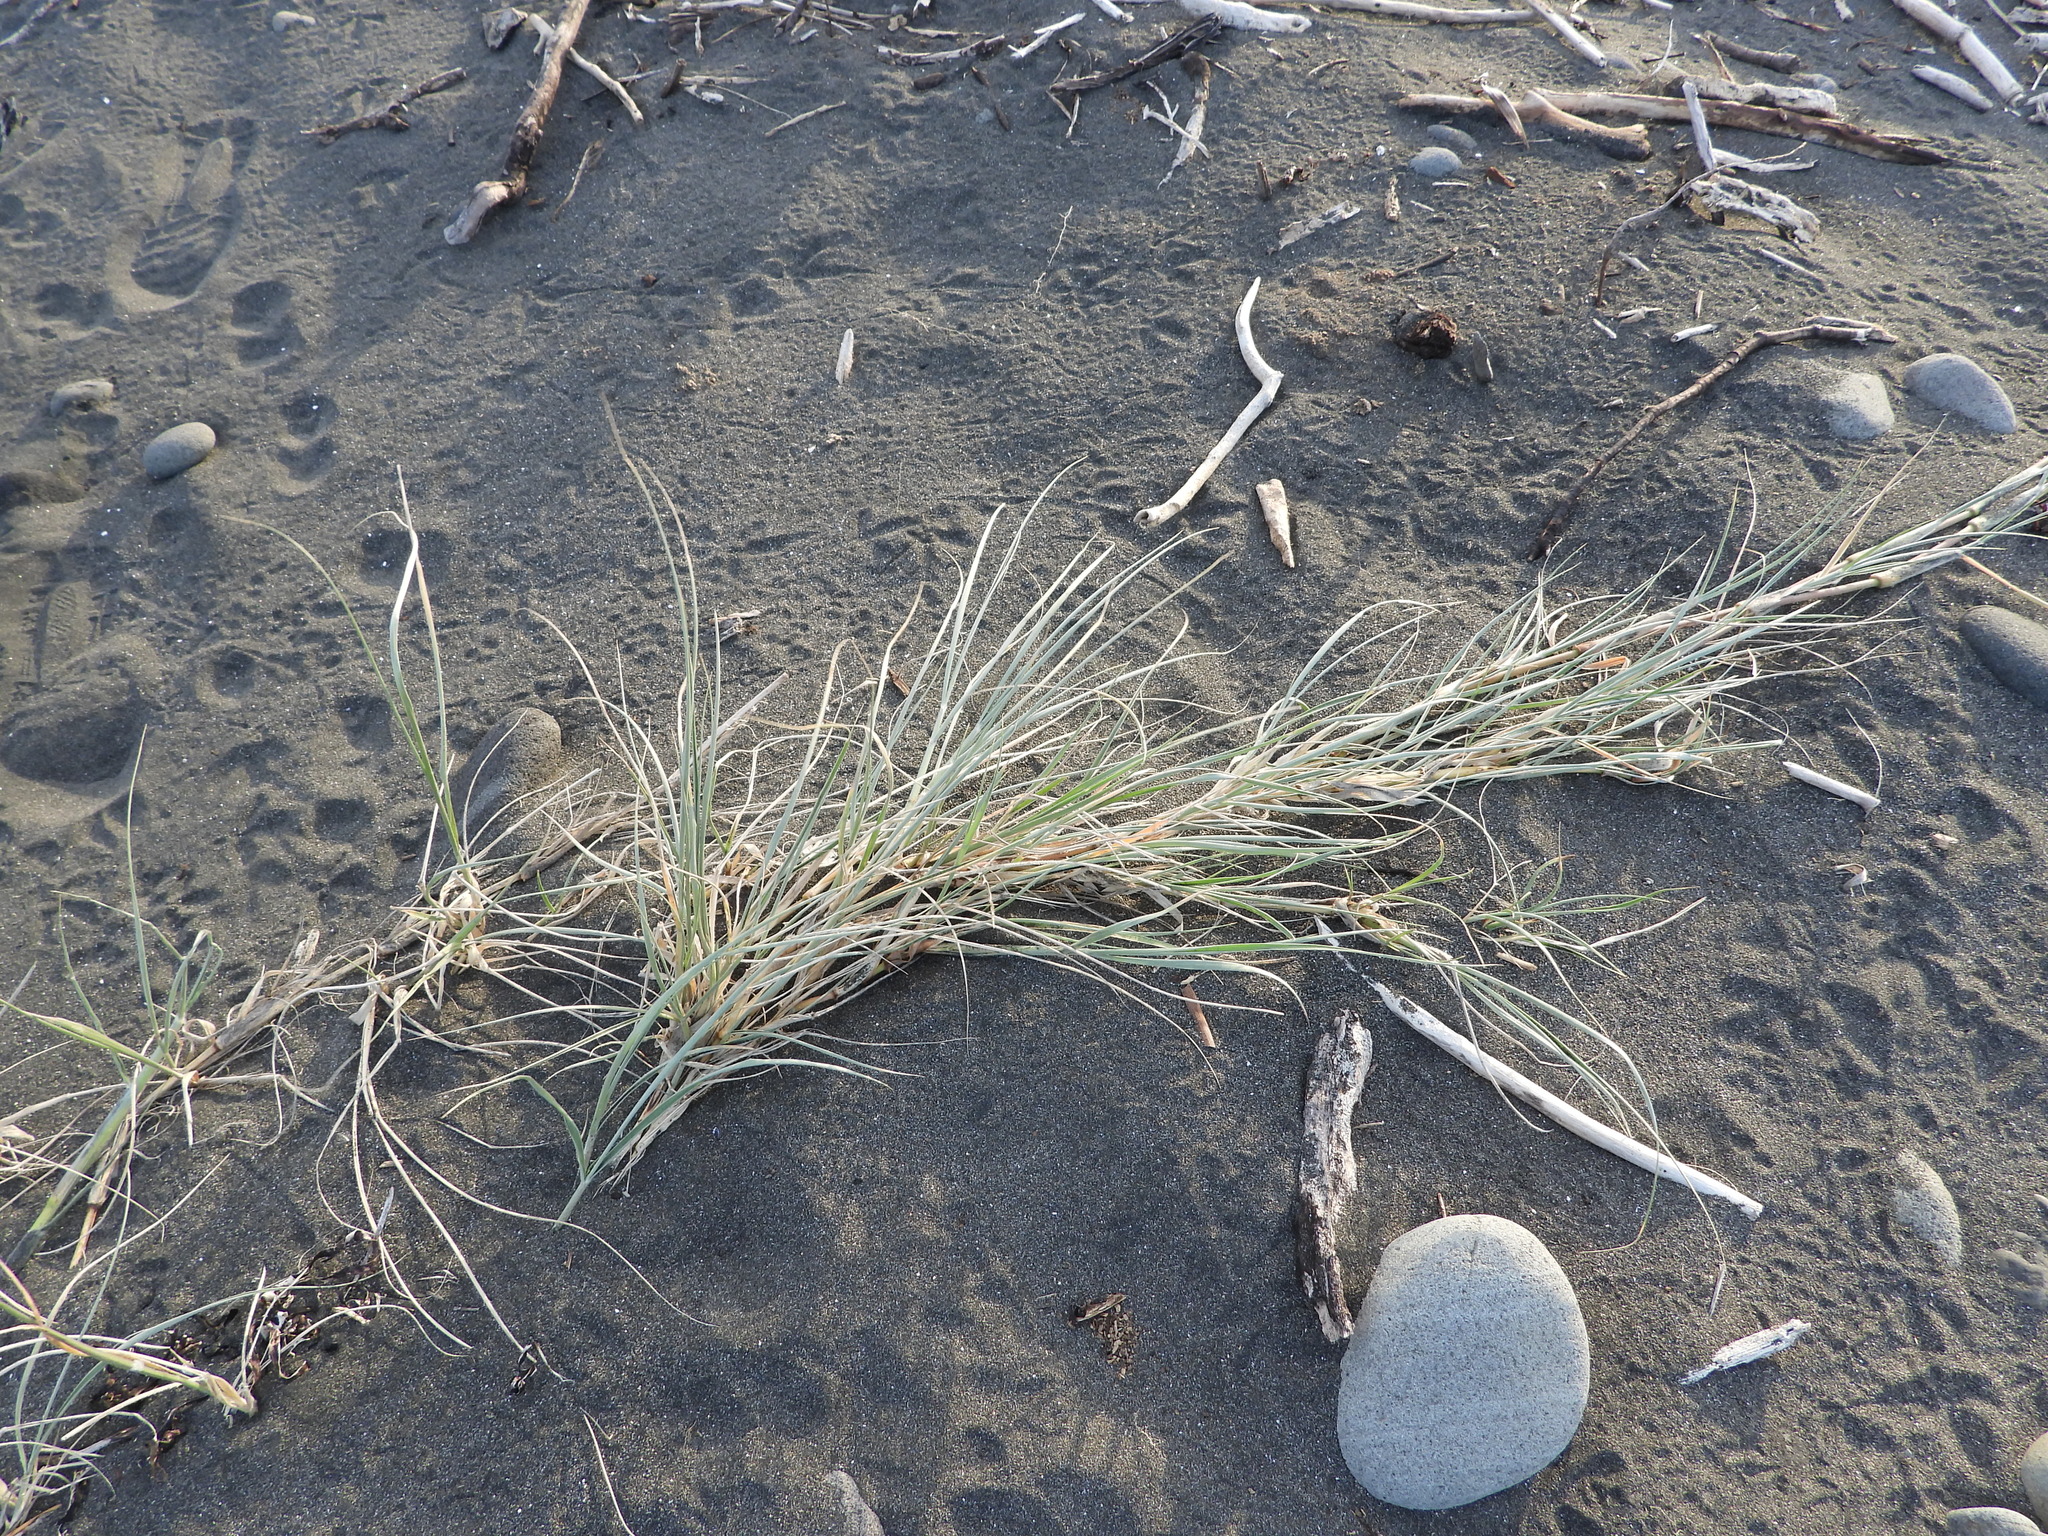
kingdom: Plantae
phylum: Tracheophyta
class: Liliopsida
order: Poales
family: Poaceae
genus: Spinifex
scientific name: Spinifex sericeus
